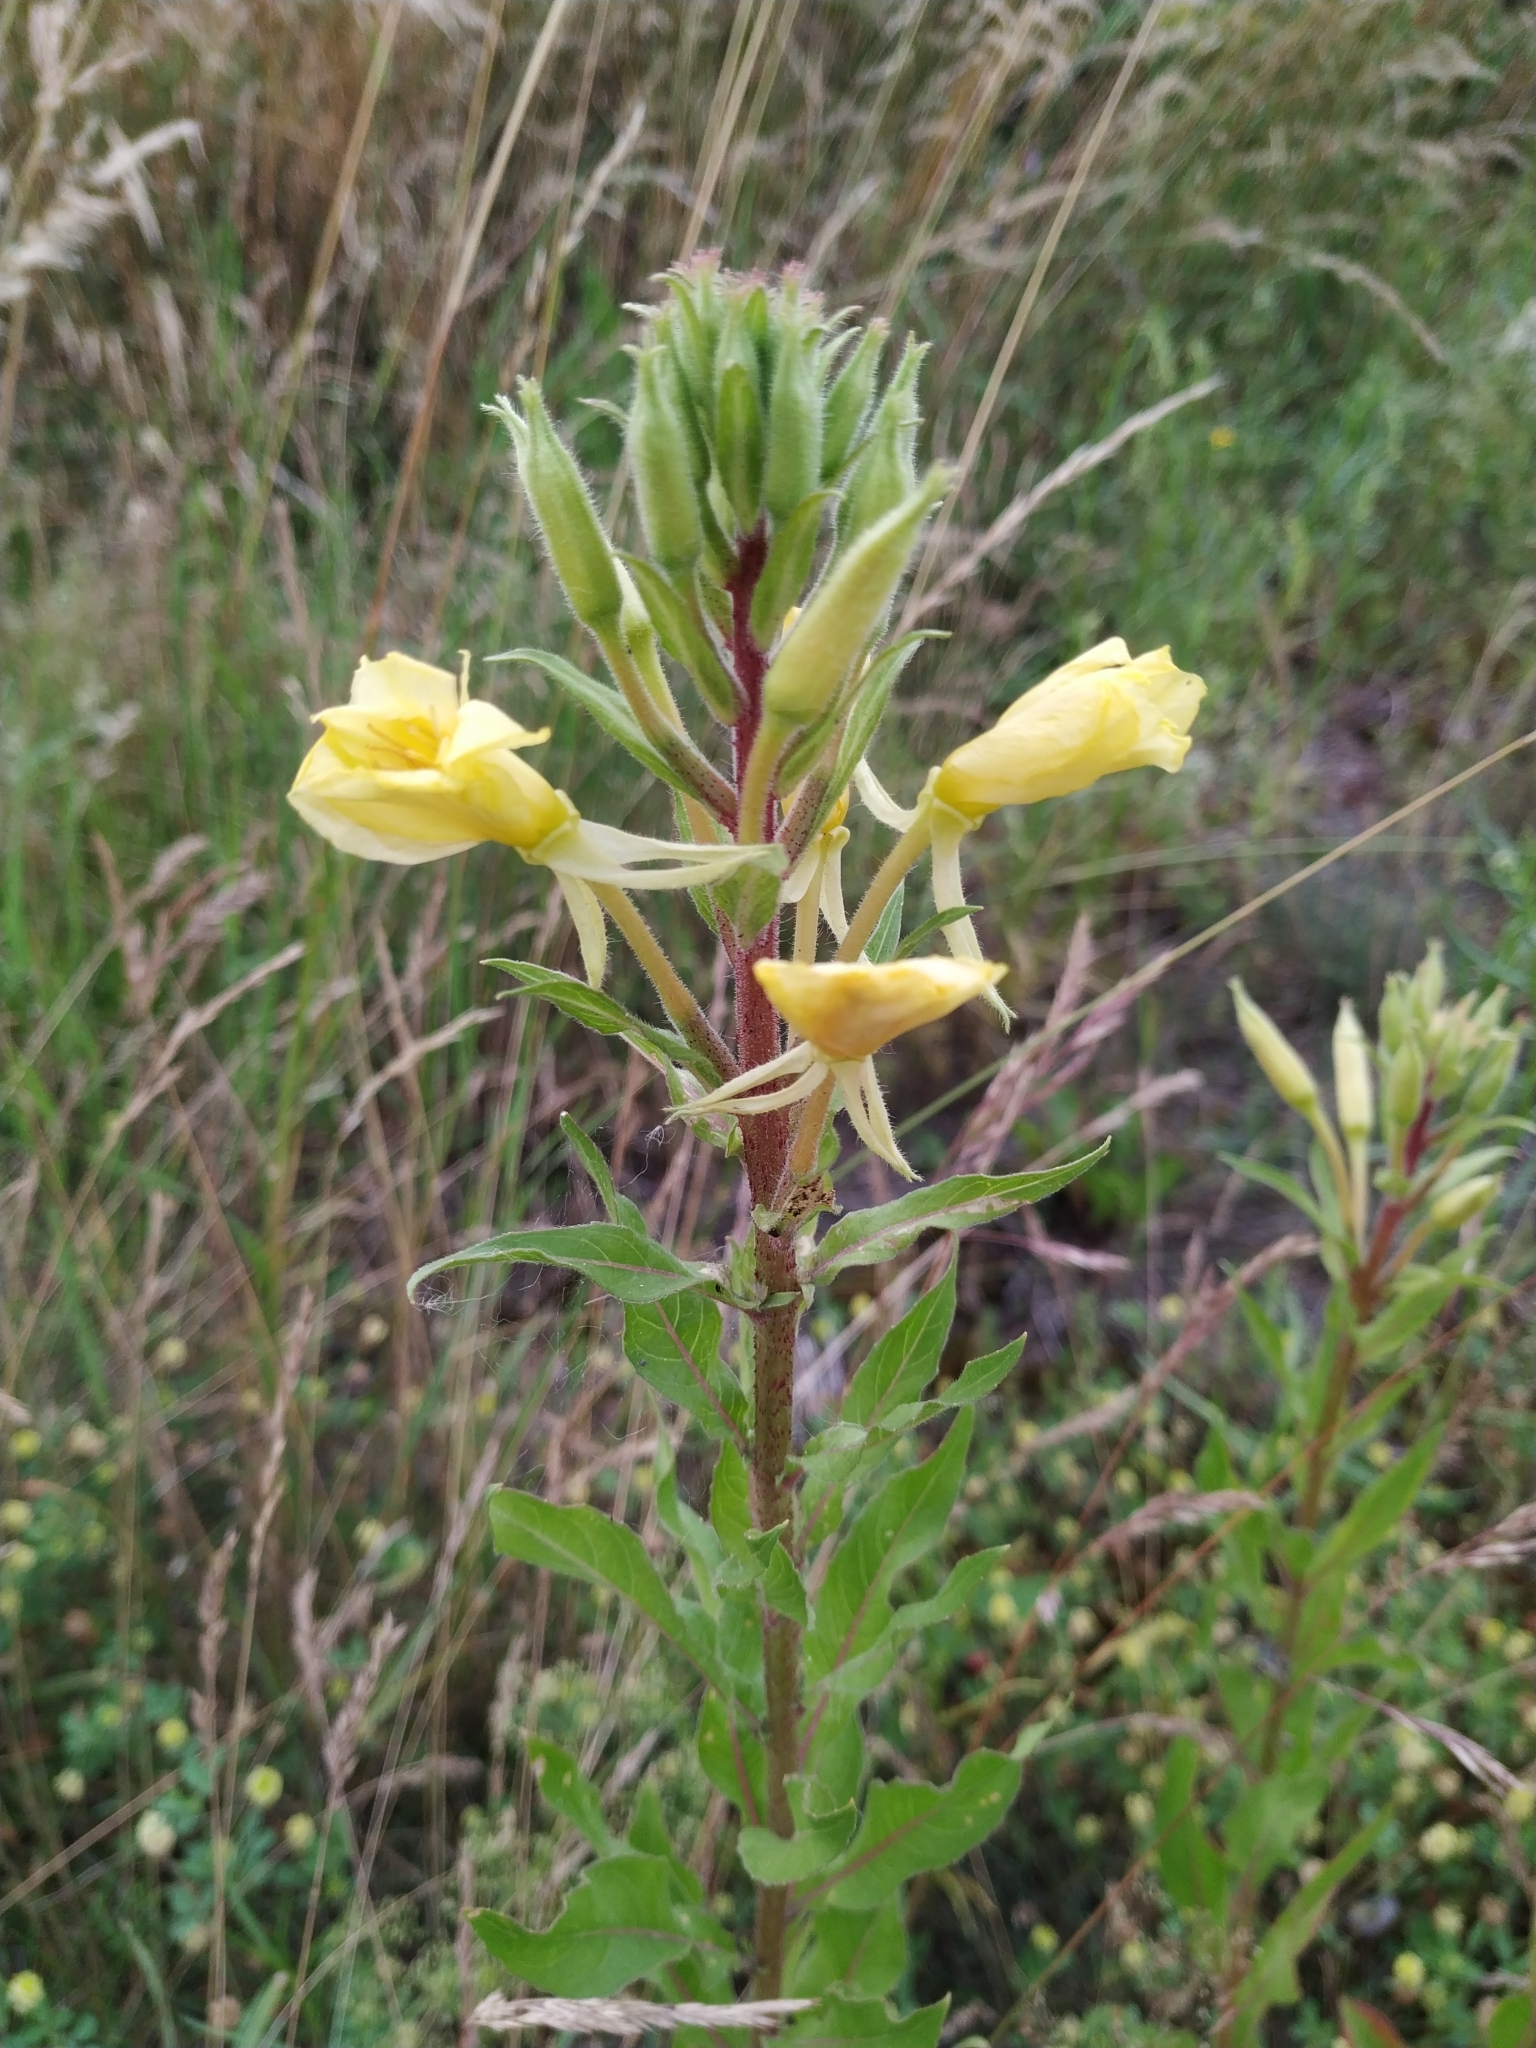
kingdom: Plantae
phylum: Tracheophyta
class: Magnoliopsida
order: Myrtales
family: Onagraceae
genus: Oenothera
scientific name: Oenothera rubricaulis
